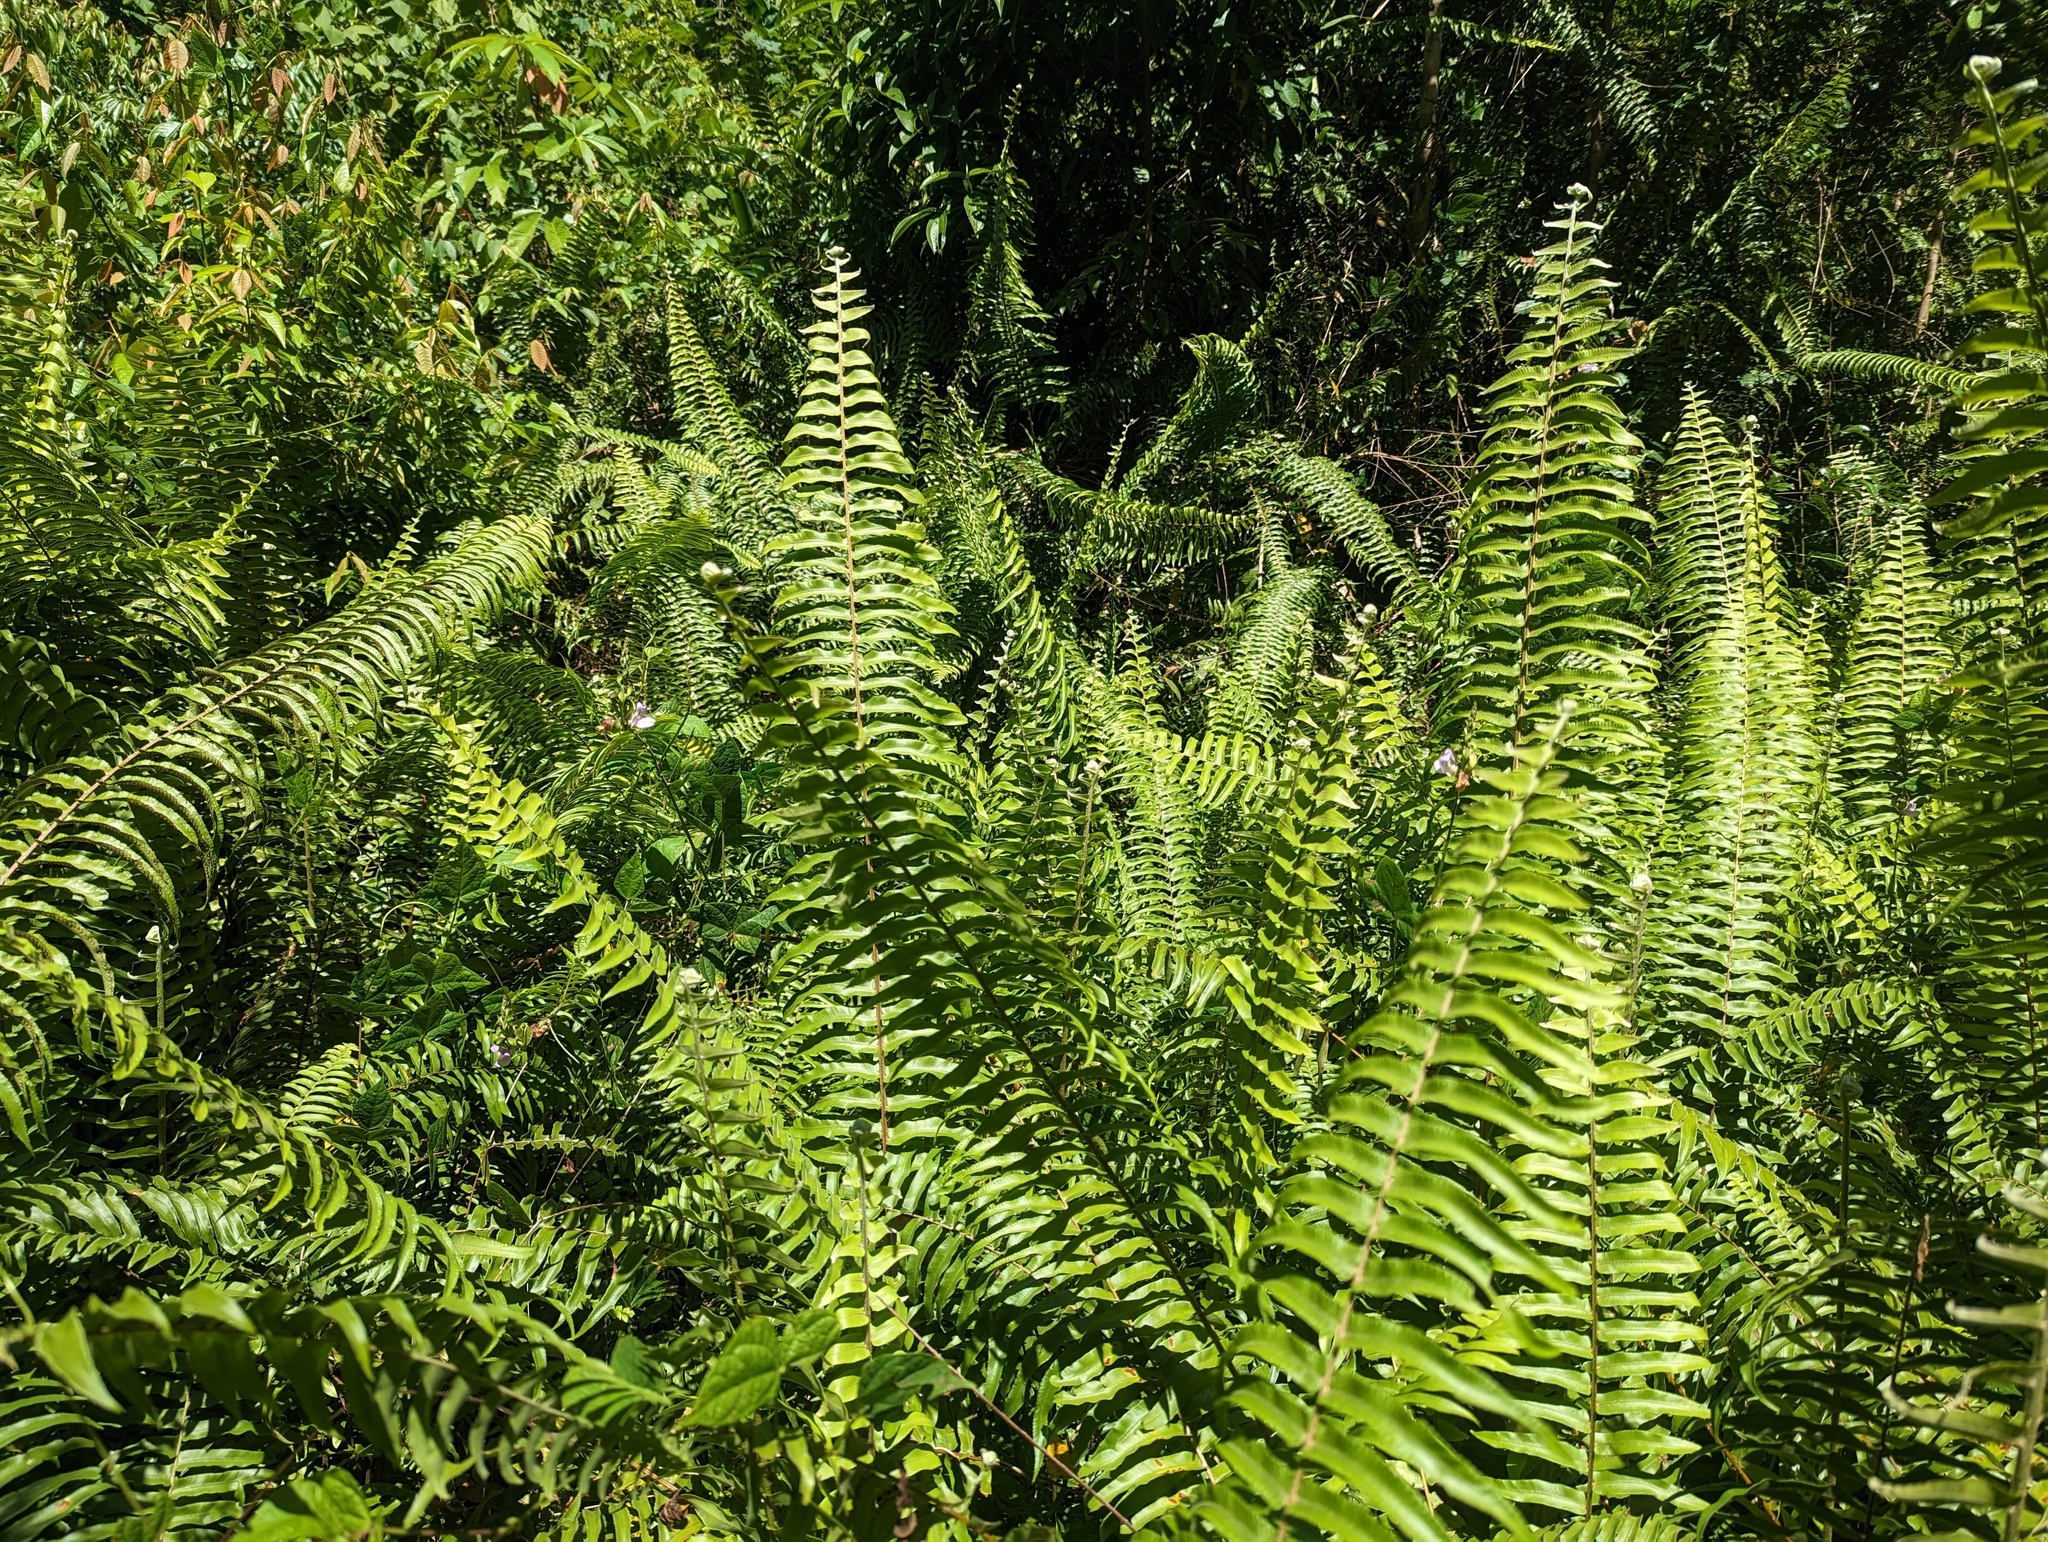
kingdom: Plantae
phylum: Tracheophyta
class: Polypodiopsida
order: Polypodiales
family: Nephrolepidaceae
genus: Nephrolepis
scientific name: Nephrolepis exaltata
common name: Sword fern
